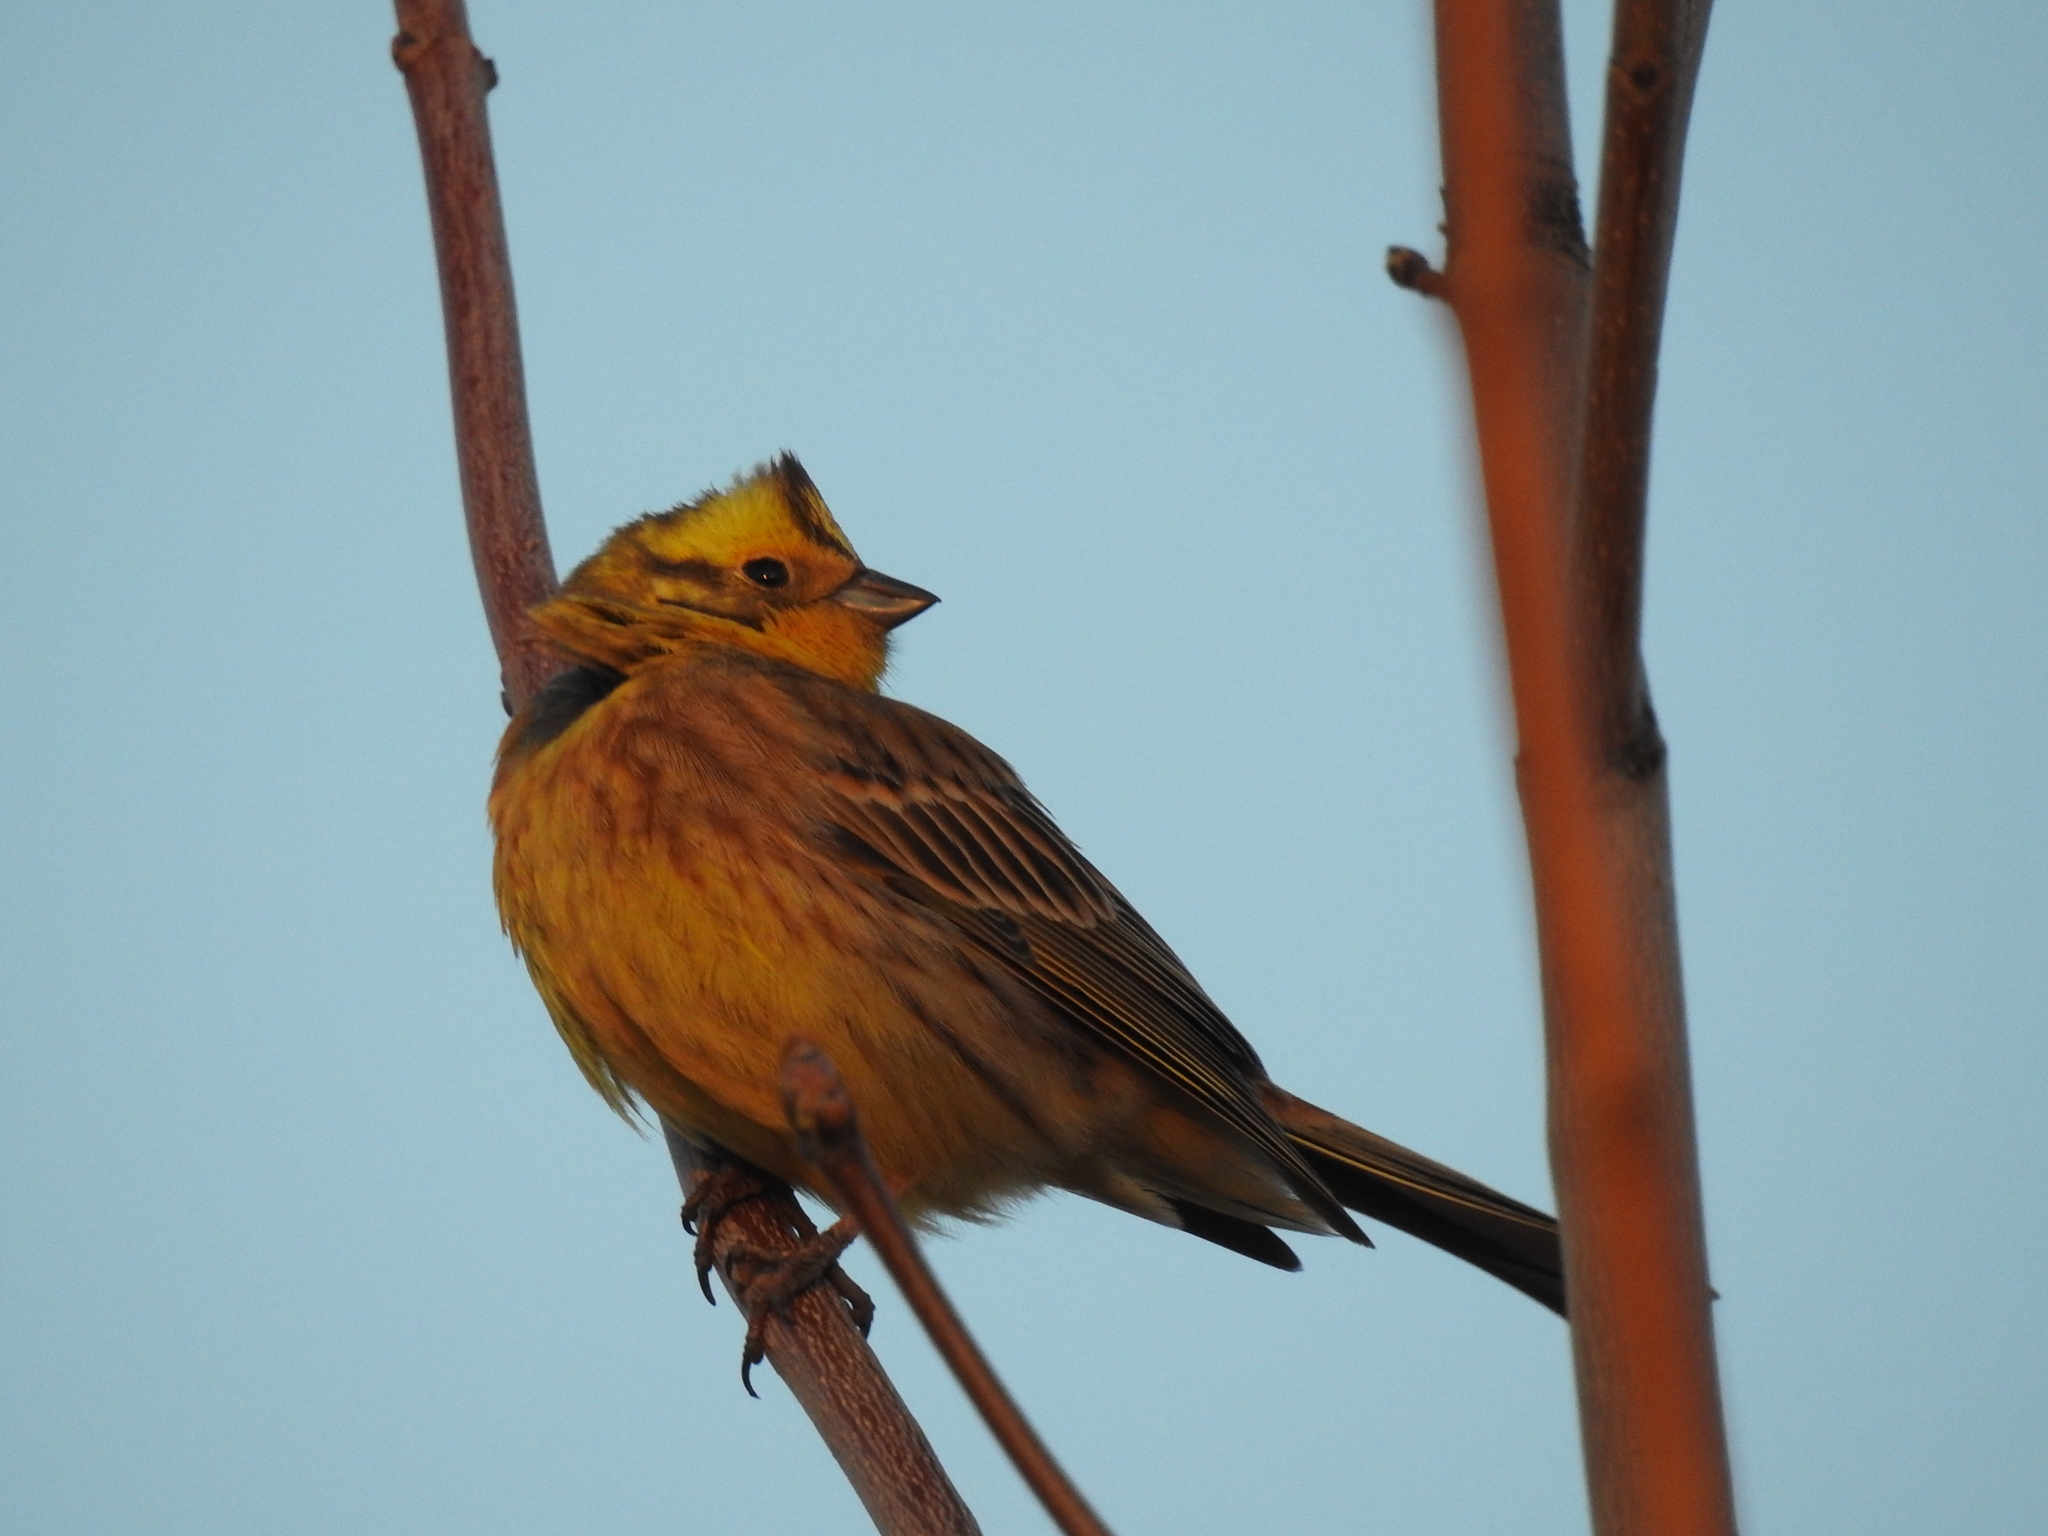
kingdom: Animalia
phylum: Chordata
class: Aves
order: Passeriformes
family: Emberizidae
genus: Emberiza
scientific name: Emberiza citrinella
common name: Yellowhammer
